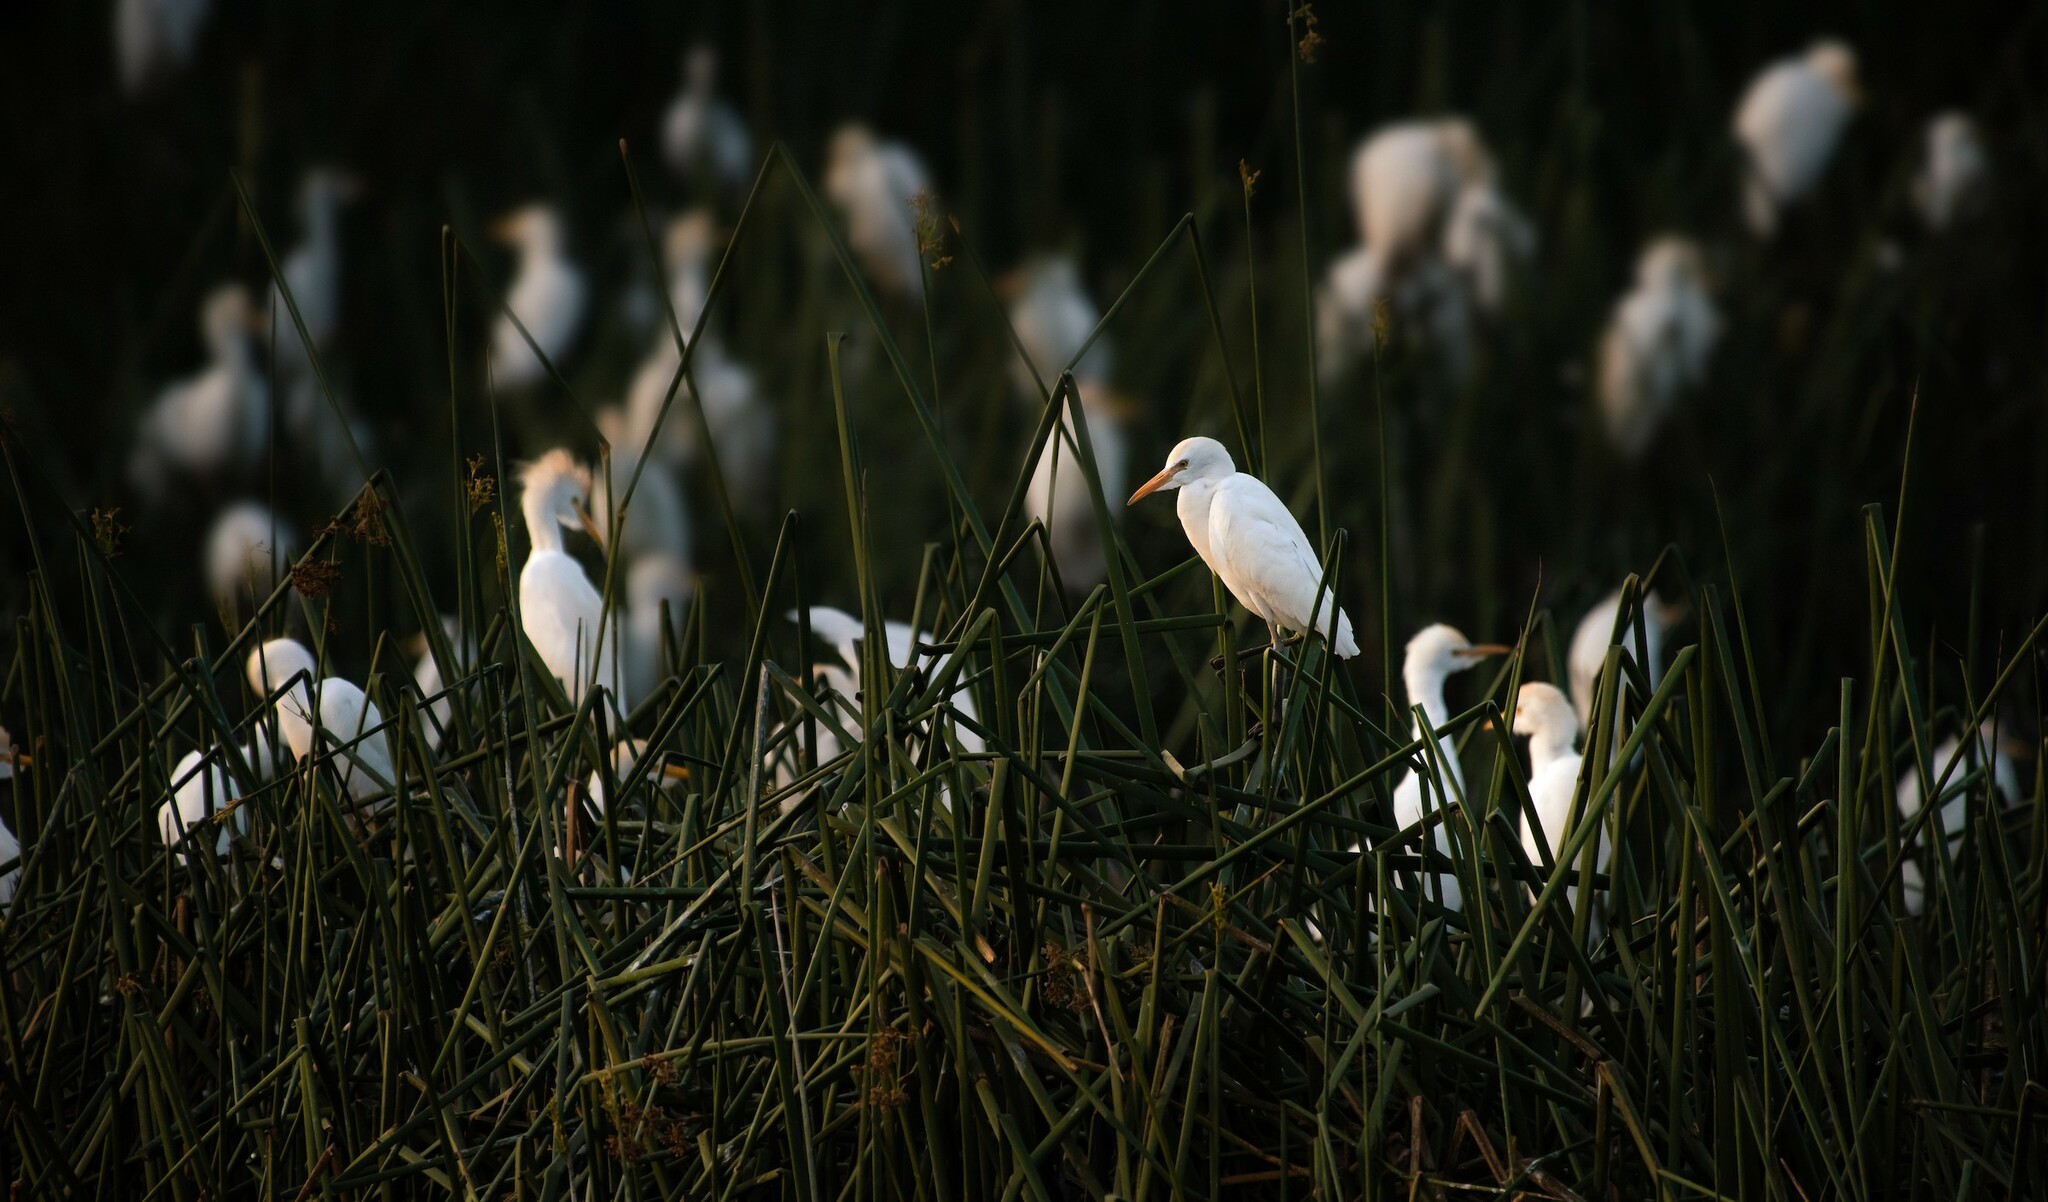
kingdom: Animalia
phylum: Chordata
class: Aves
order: Pelecaniformes
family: Ardeidae
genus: Bubulcus
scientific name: Bubulcus ibis
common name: Cattle egret
